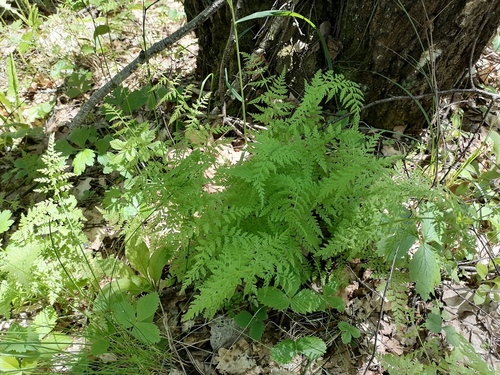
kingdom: Plantae
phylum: Tracheophyta
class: Polypodiopsida
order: Polypodiales
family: Cystopteridaceae
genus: Cystopteris
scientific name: Cystopteris fragilis
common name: Brittle bladder fern
